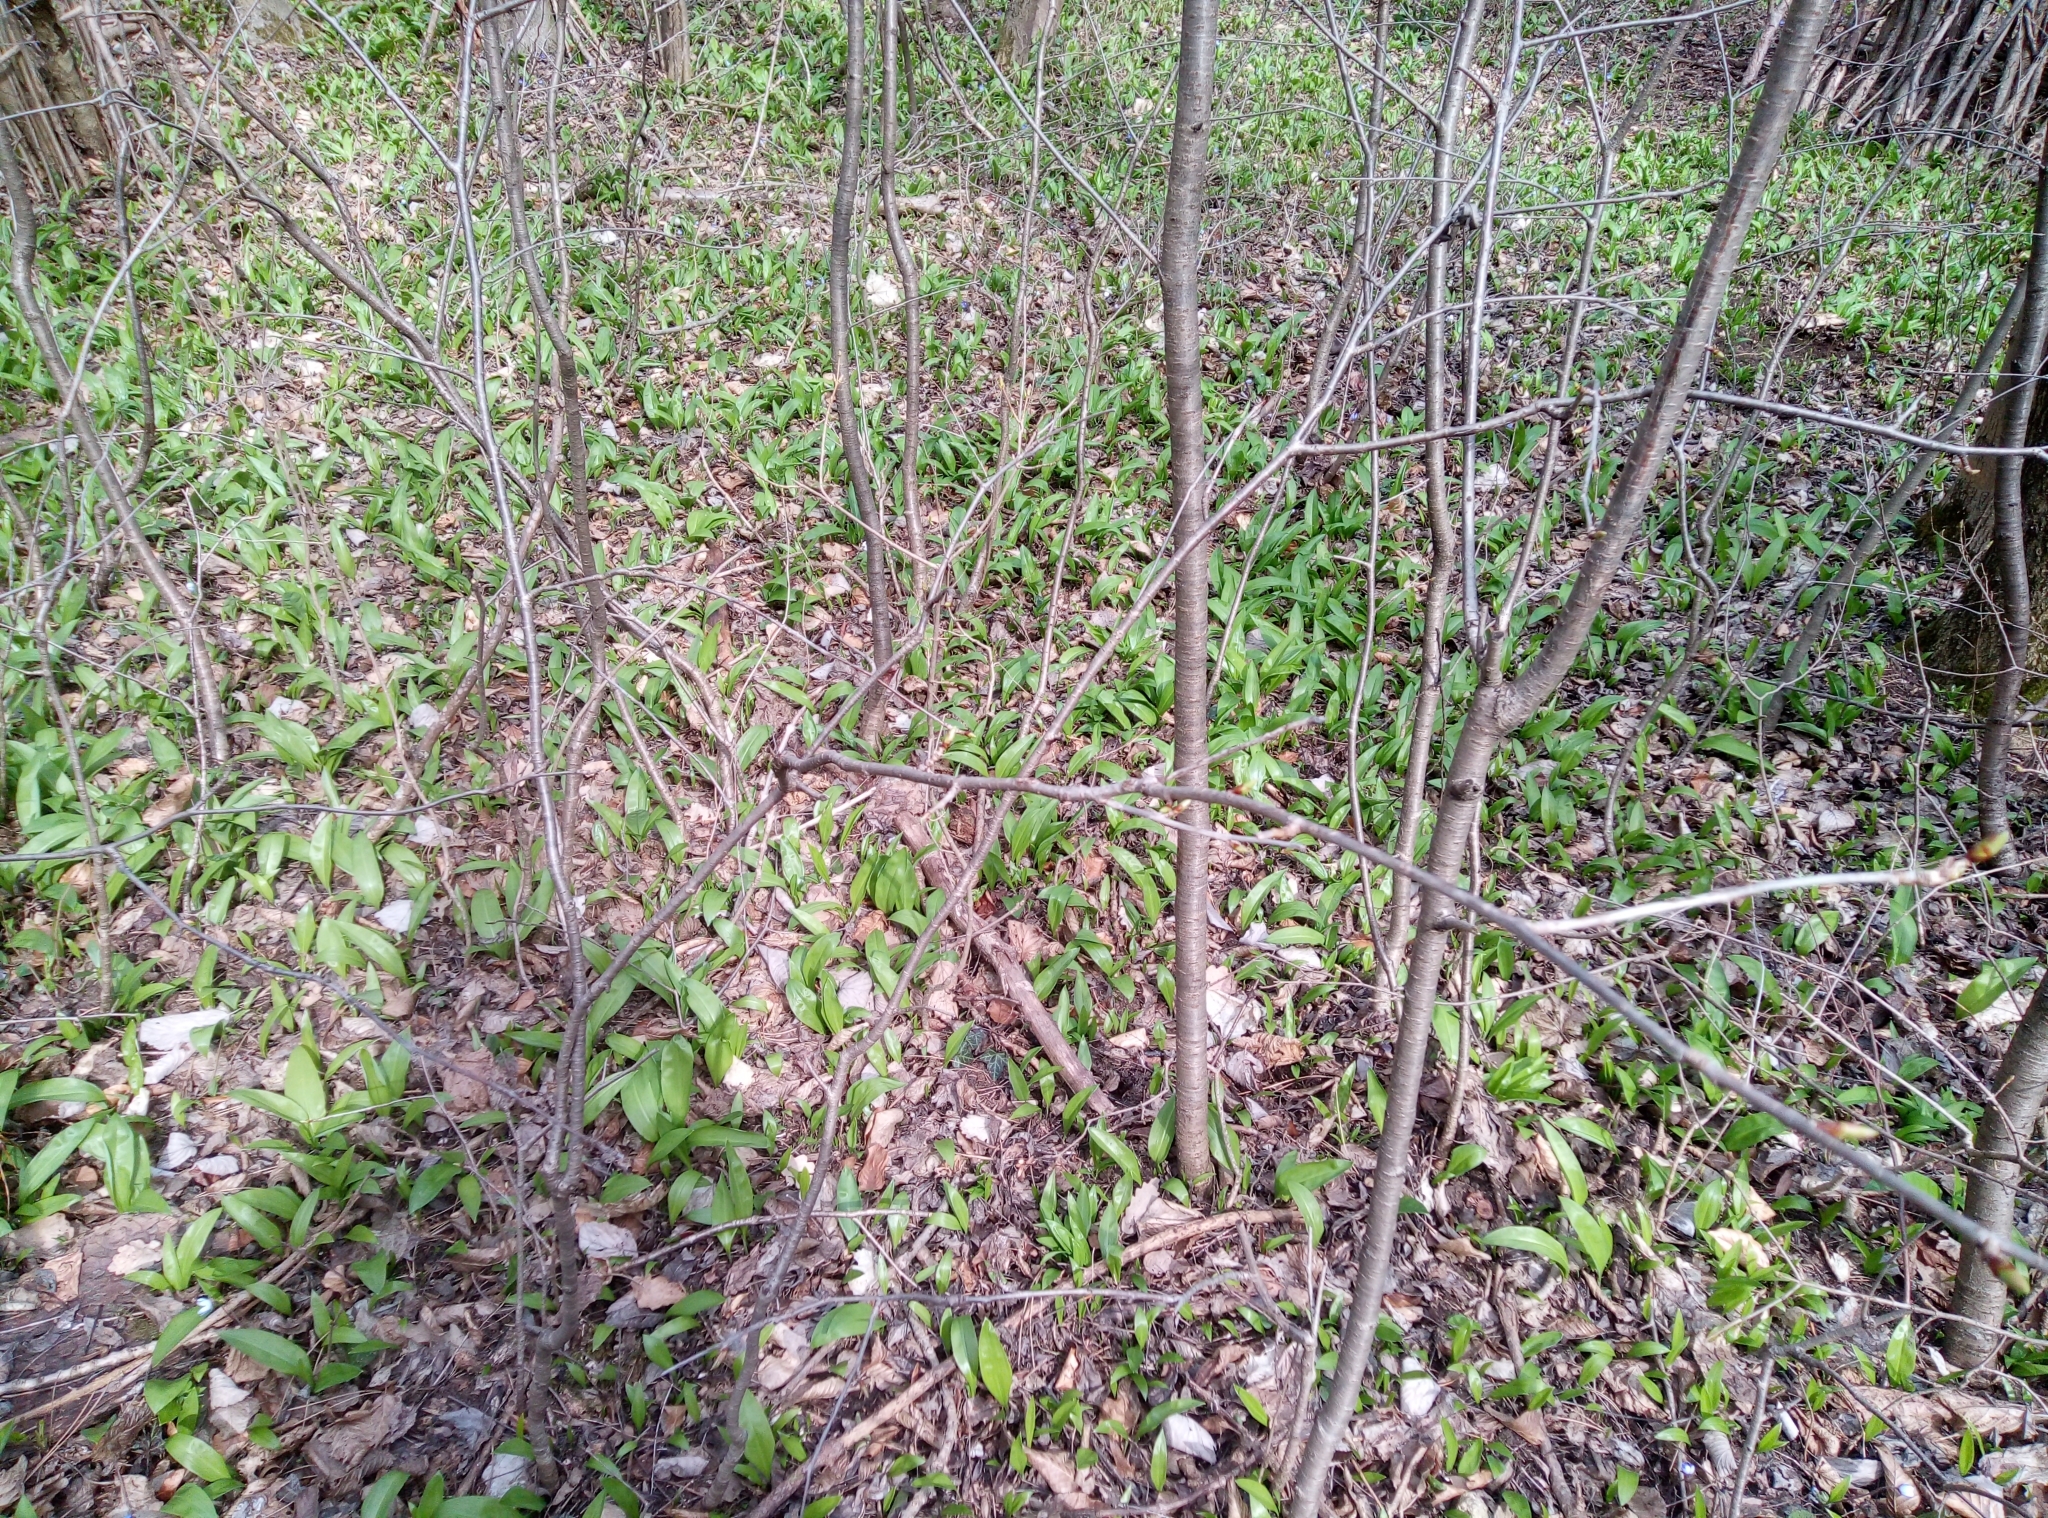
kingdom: Plantae
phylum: Tracheophyta
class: Liliopsida
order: Asparagales
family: Amaryllidaceae
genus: Allium
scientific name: Allium ursinum
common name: Ramsons
